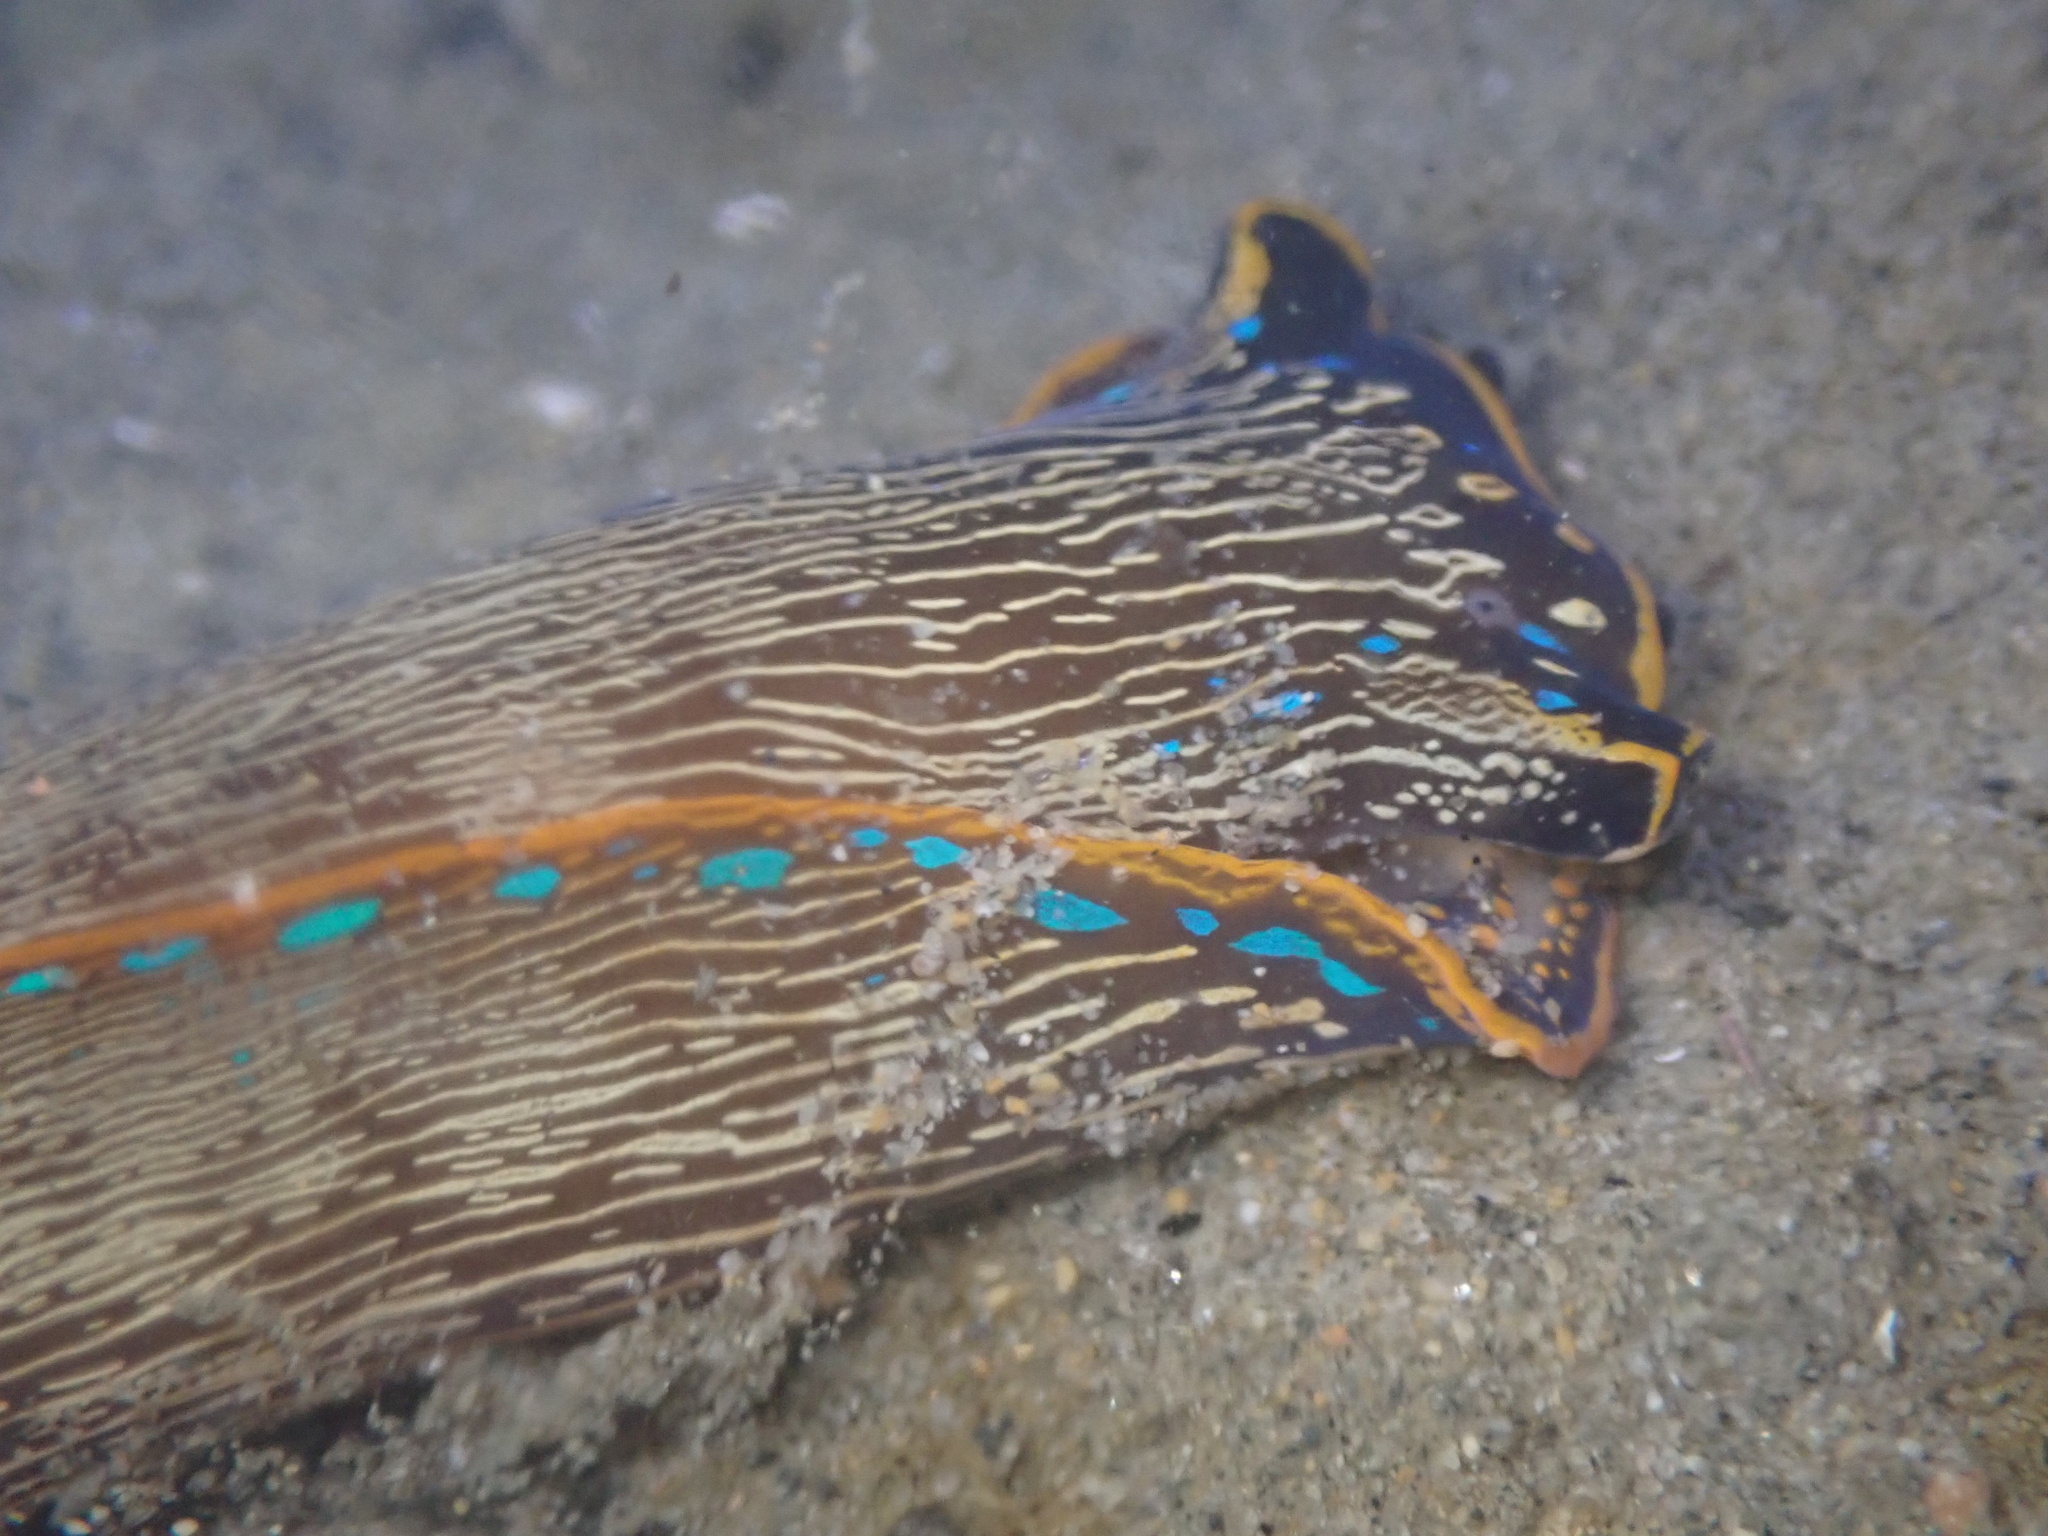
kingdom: Animalia
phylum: Mollusca
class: Gastropoda
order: Cephalaspidea
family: Aglajidae
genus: Navanax
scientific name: Navanax inermis
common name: California aglaja
